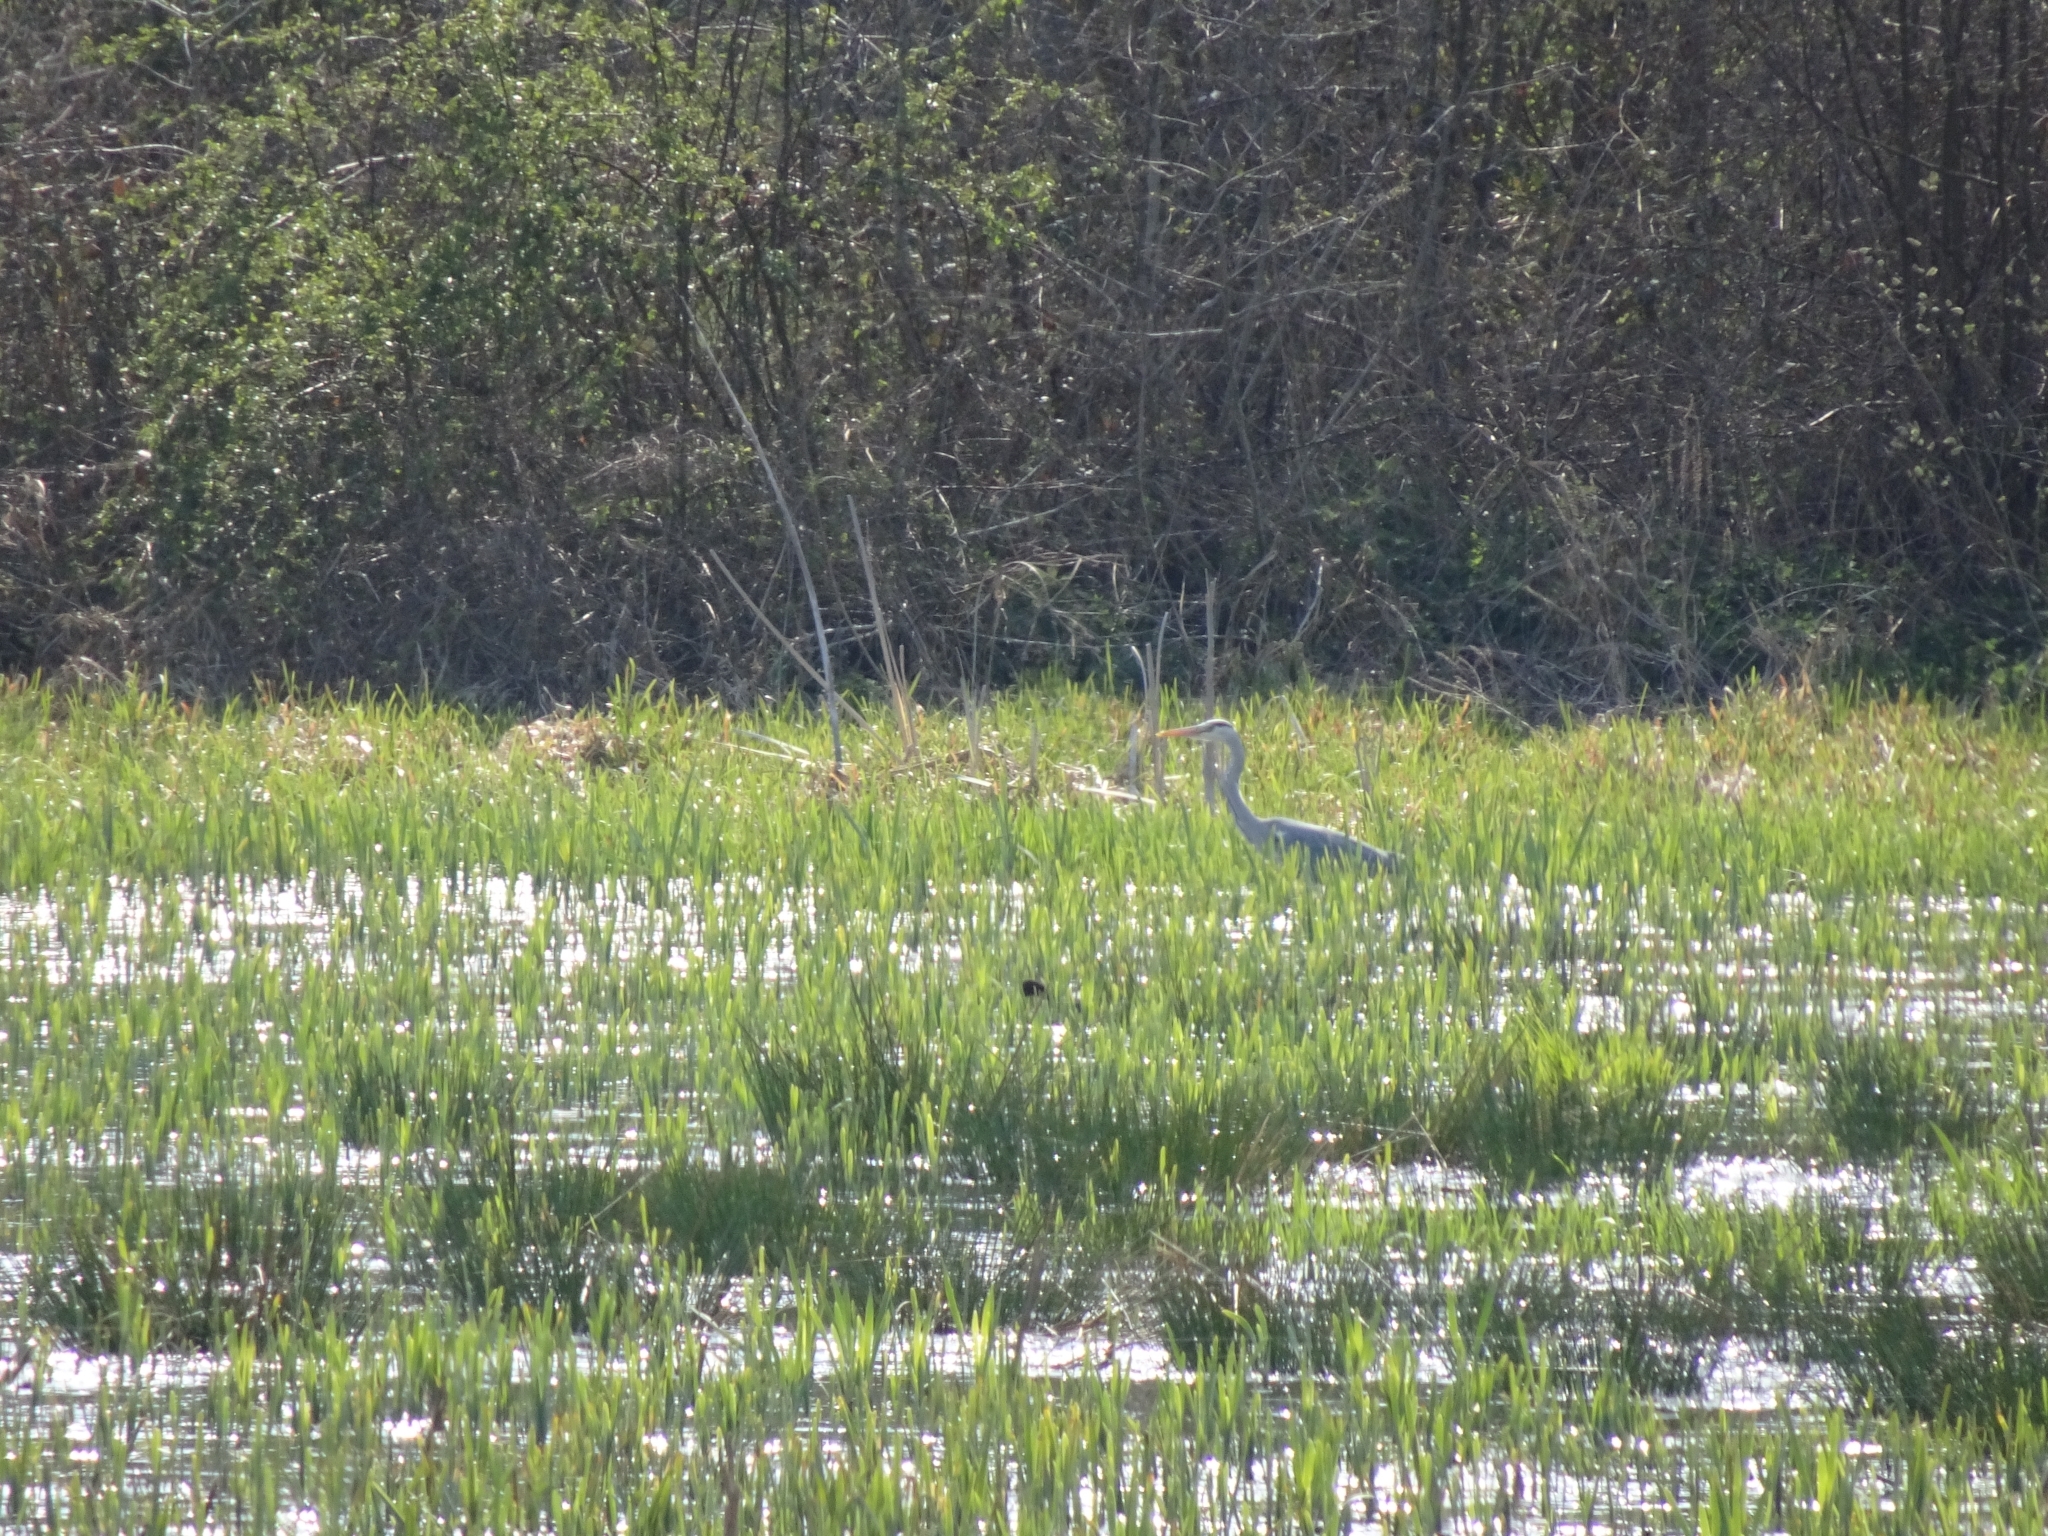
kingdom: Animalia
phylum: Chordata
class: Aves
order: Pelecaniformes
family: Ardeidae
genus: Ardea
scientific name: Ardea cinerea
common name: Grey heron
